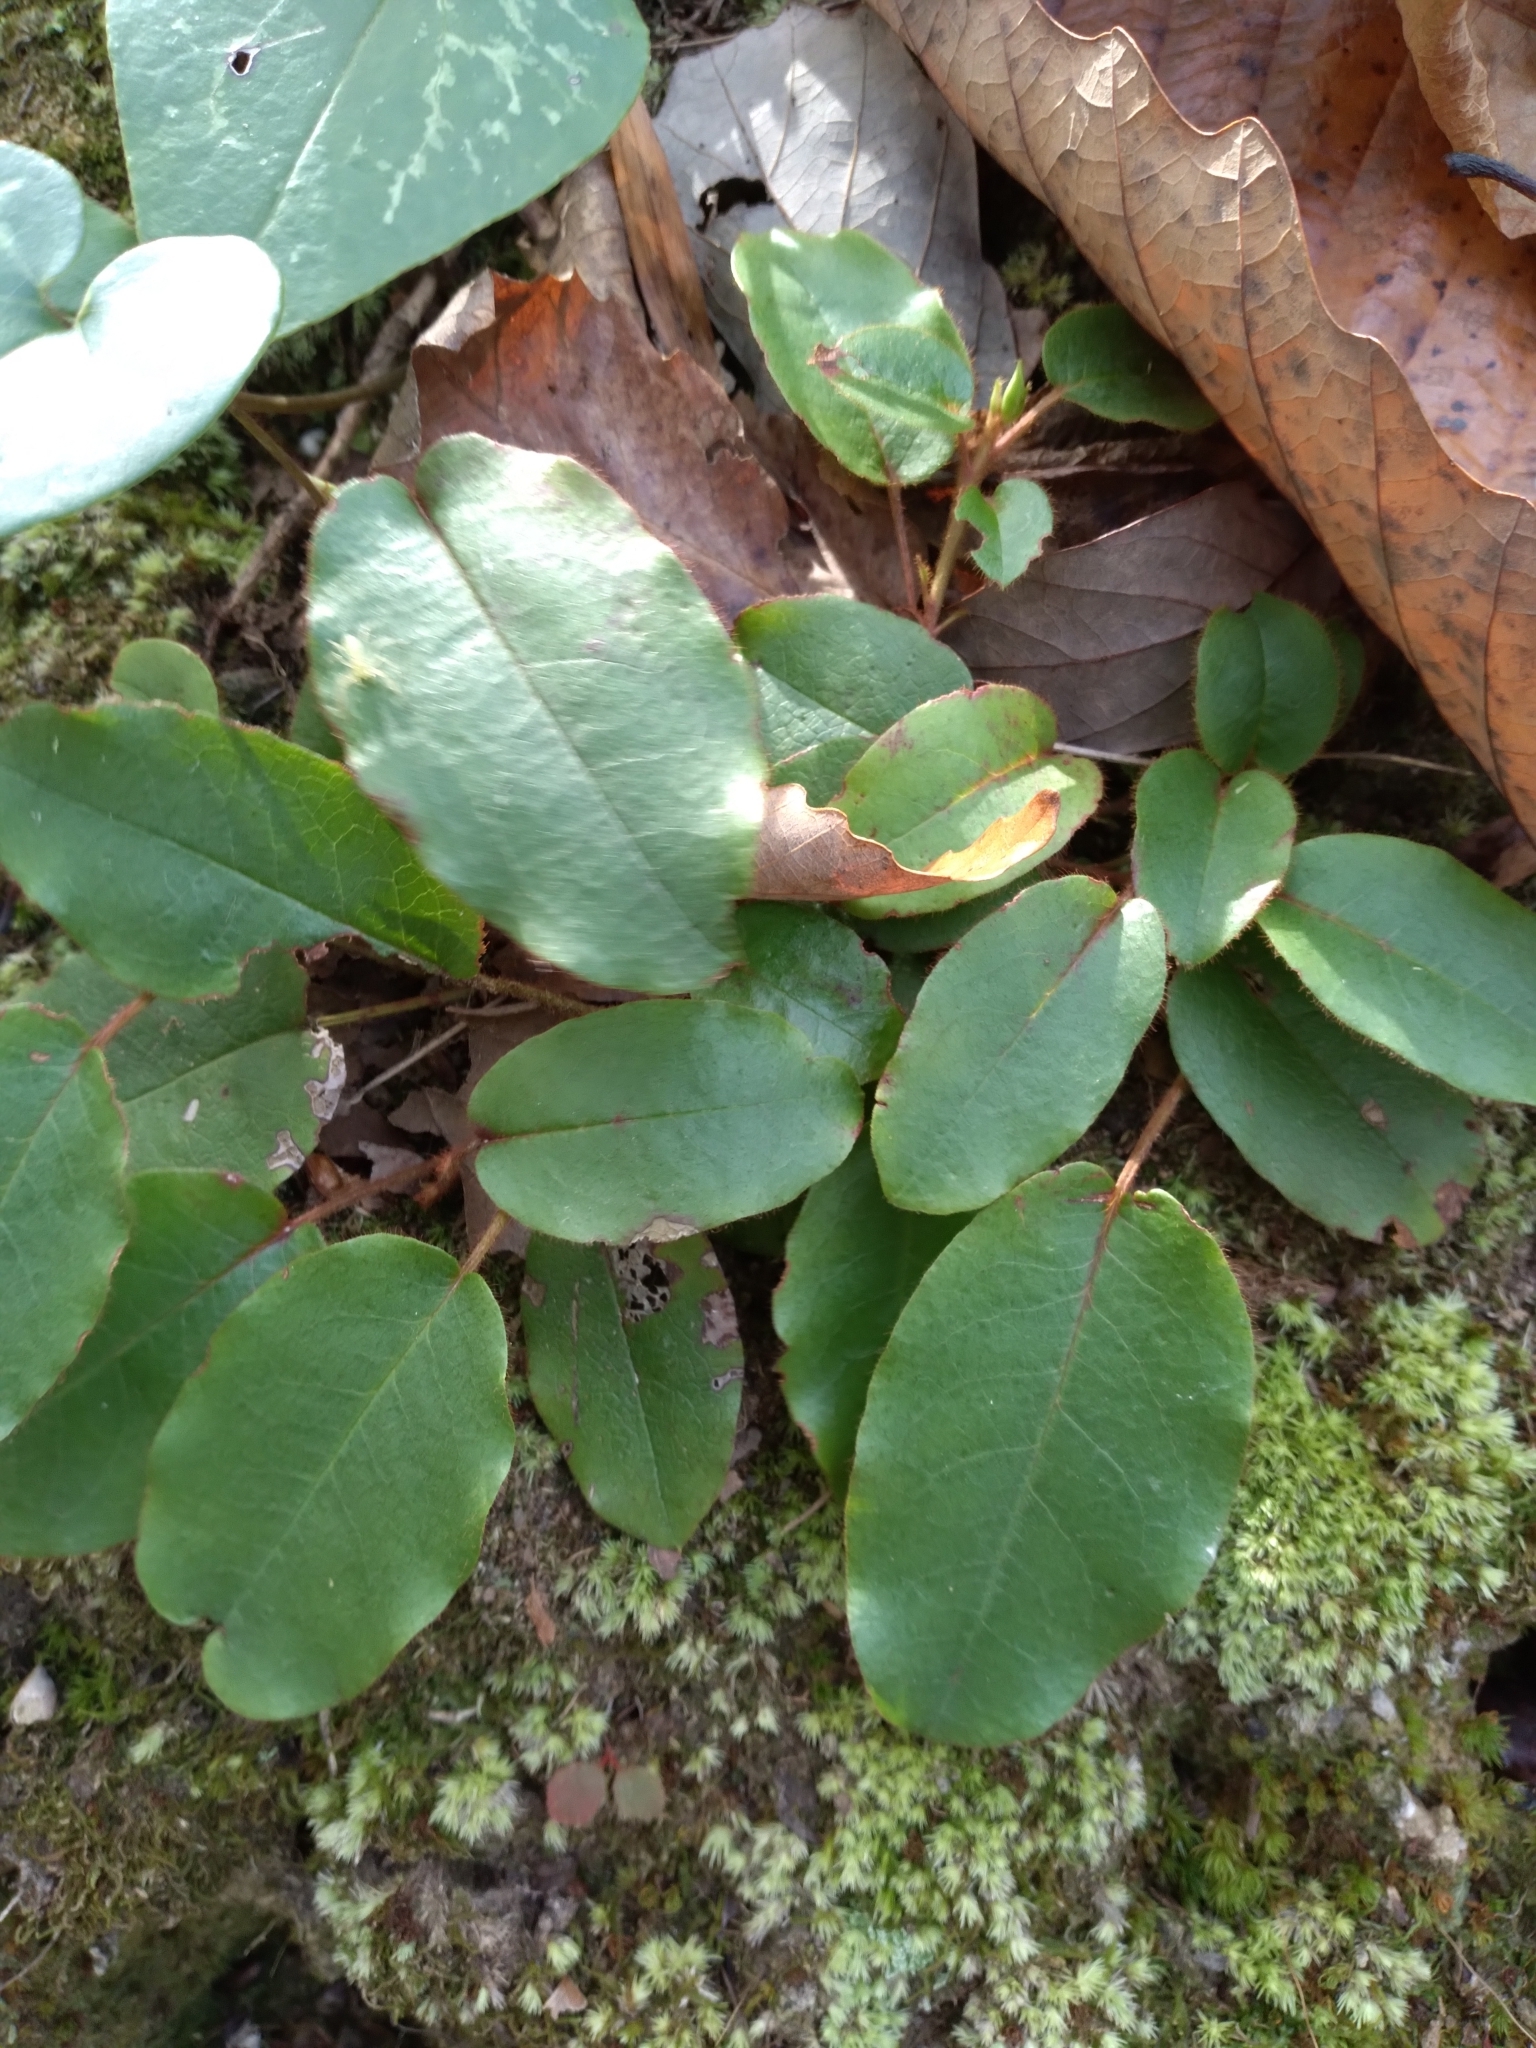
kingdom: Plantae
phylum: Tracheophyta
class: Magnoliopsida
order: Ericales
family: Ericaceae
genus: Epigaea
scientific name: Epigaea repens
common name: Gravelroot
